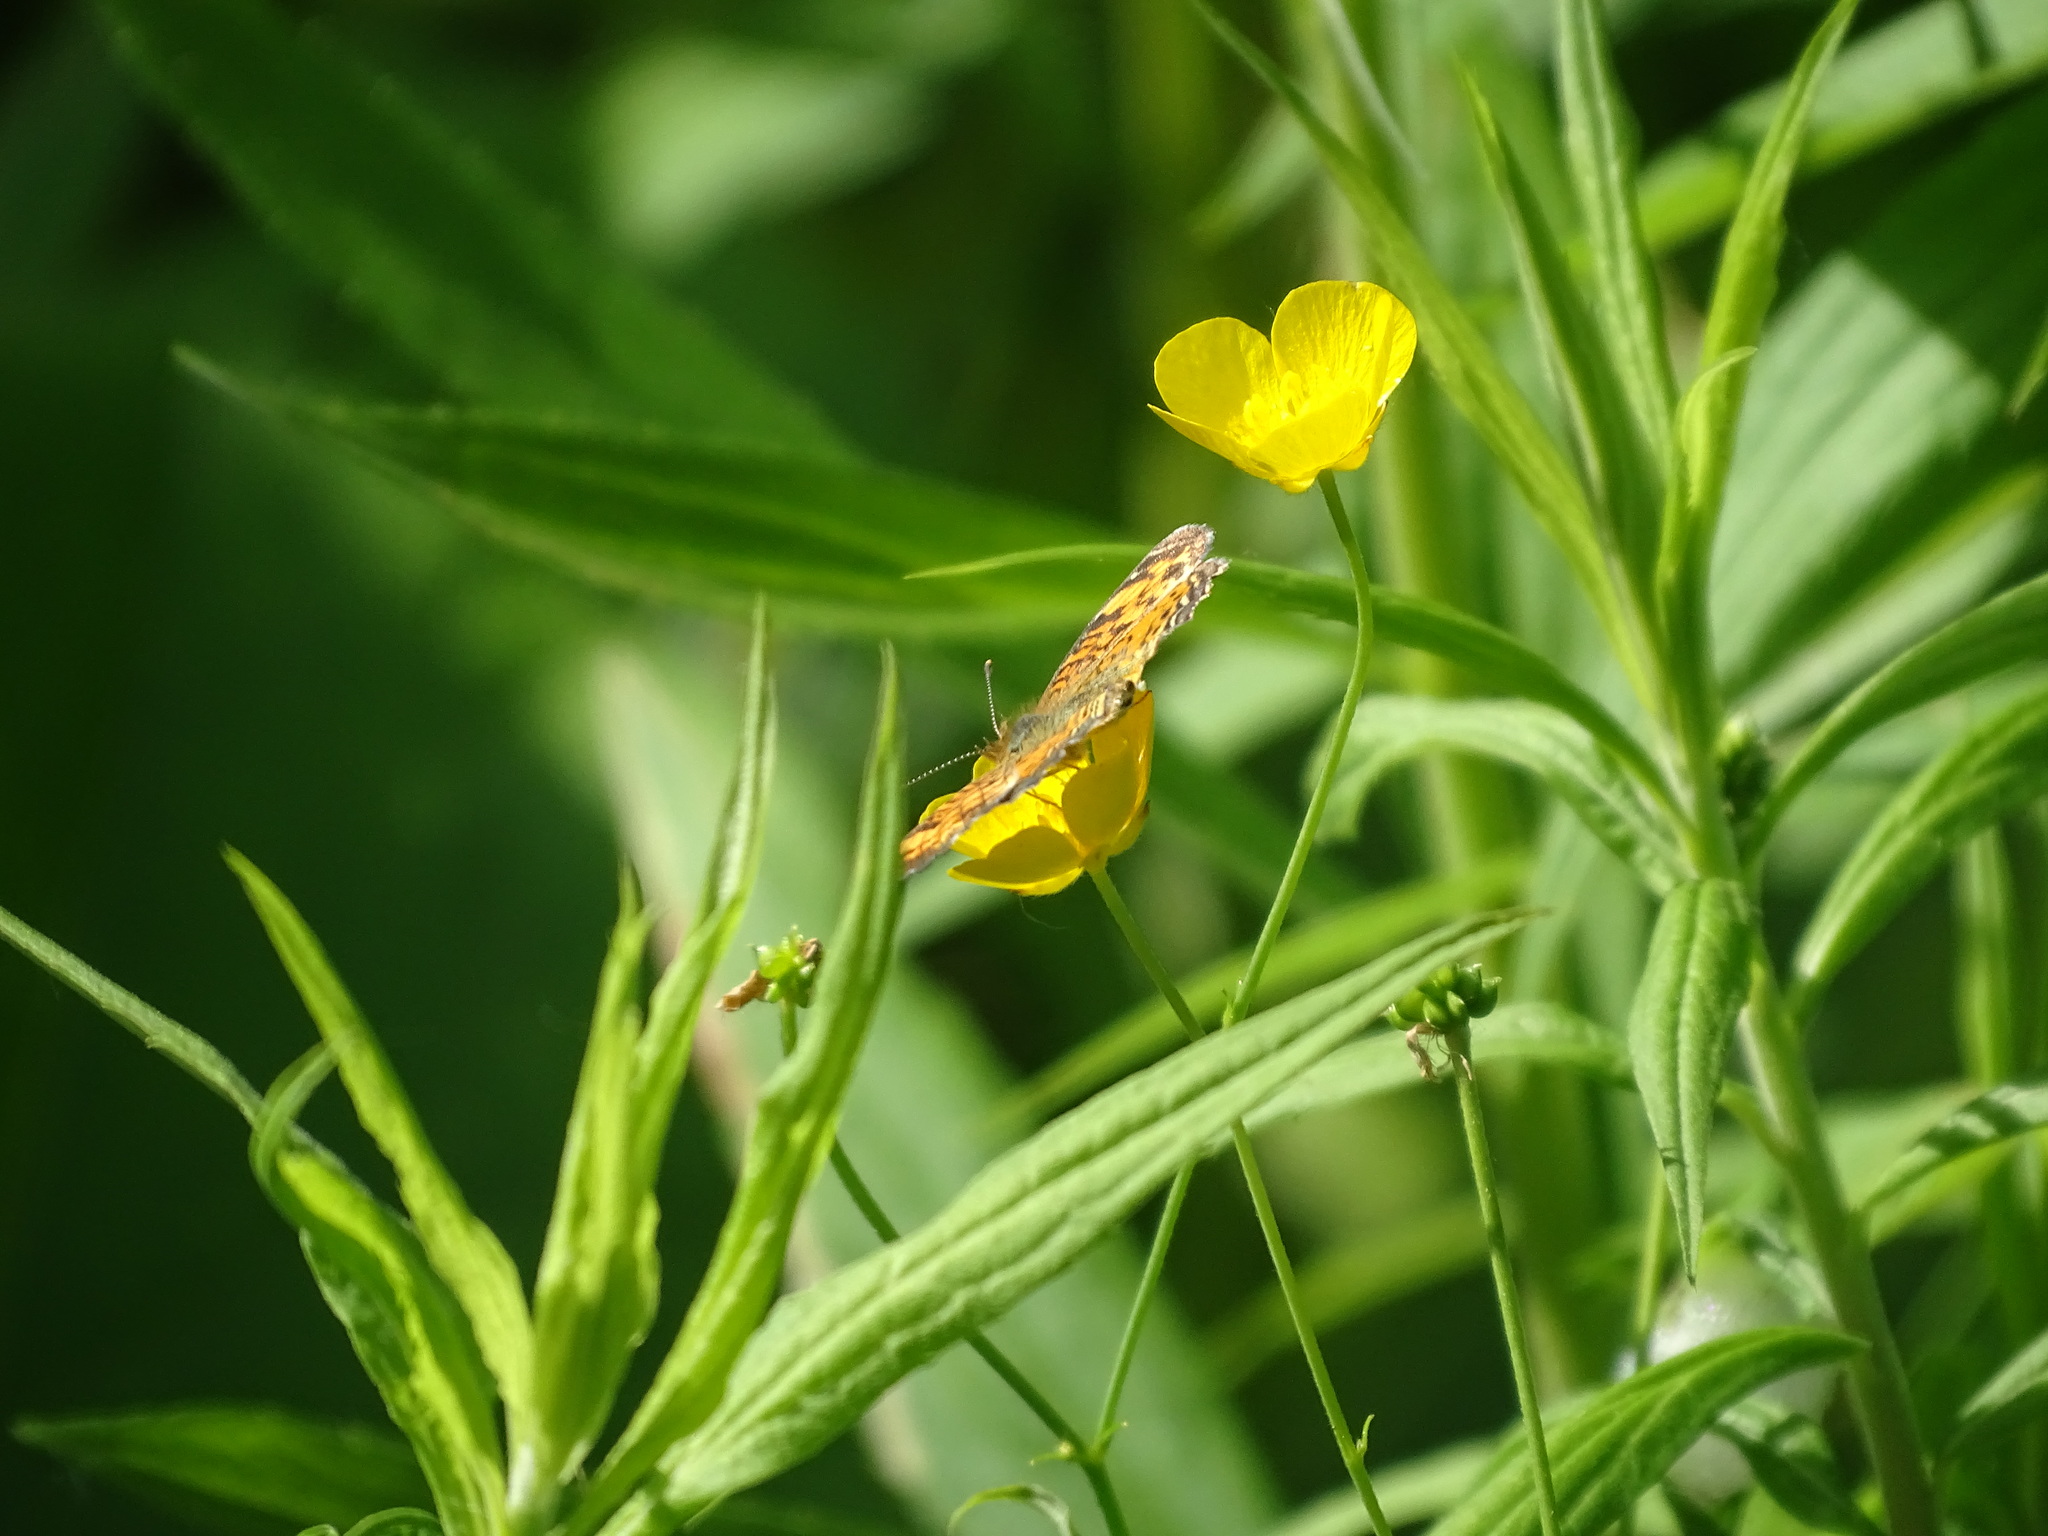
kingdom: Animalia
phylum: Arthropoda
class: Insecta
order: Lepidoptera
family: Nymphalidae
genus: Phyciodes
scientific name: Phyciodes
